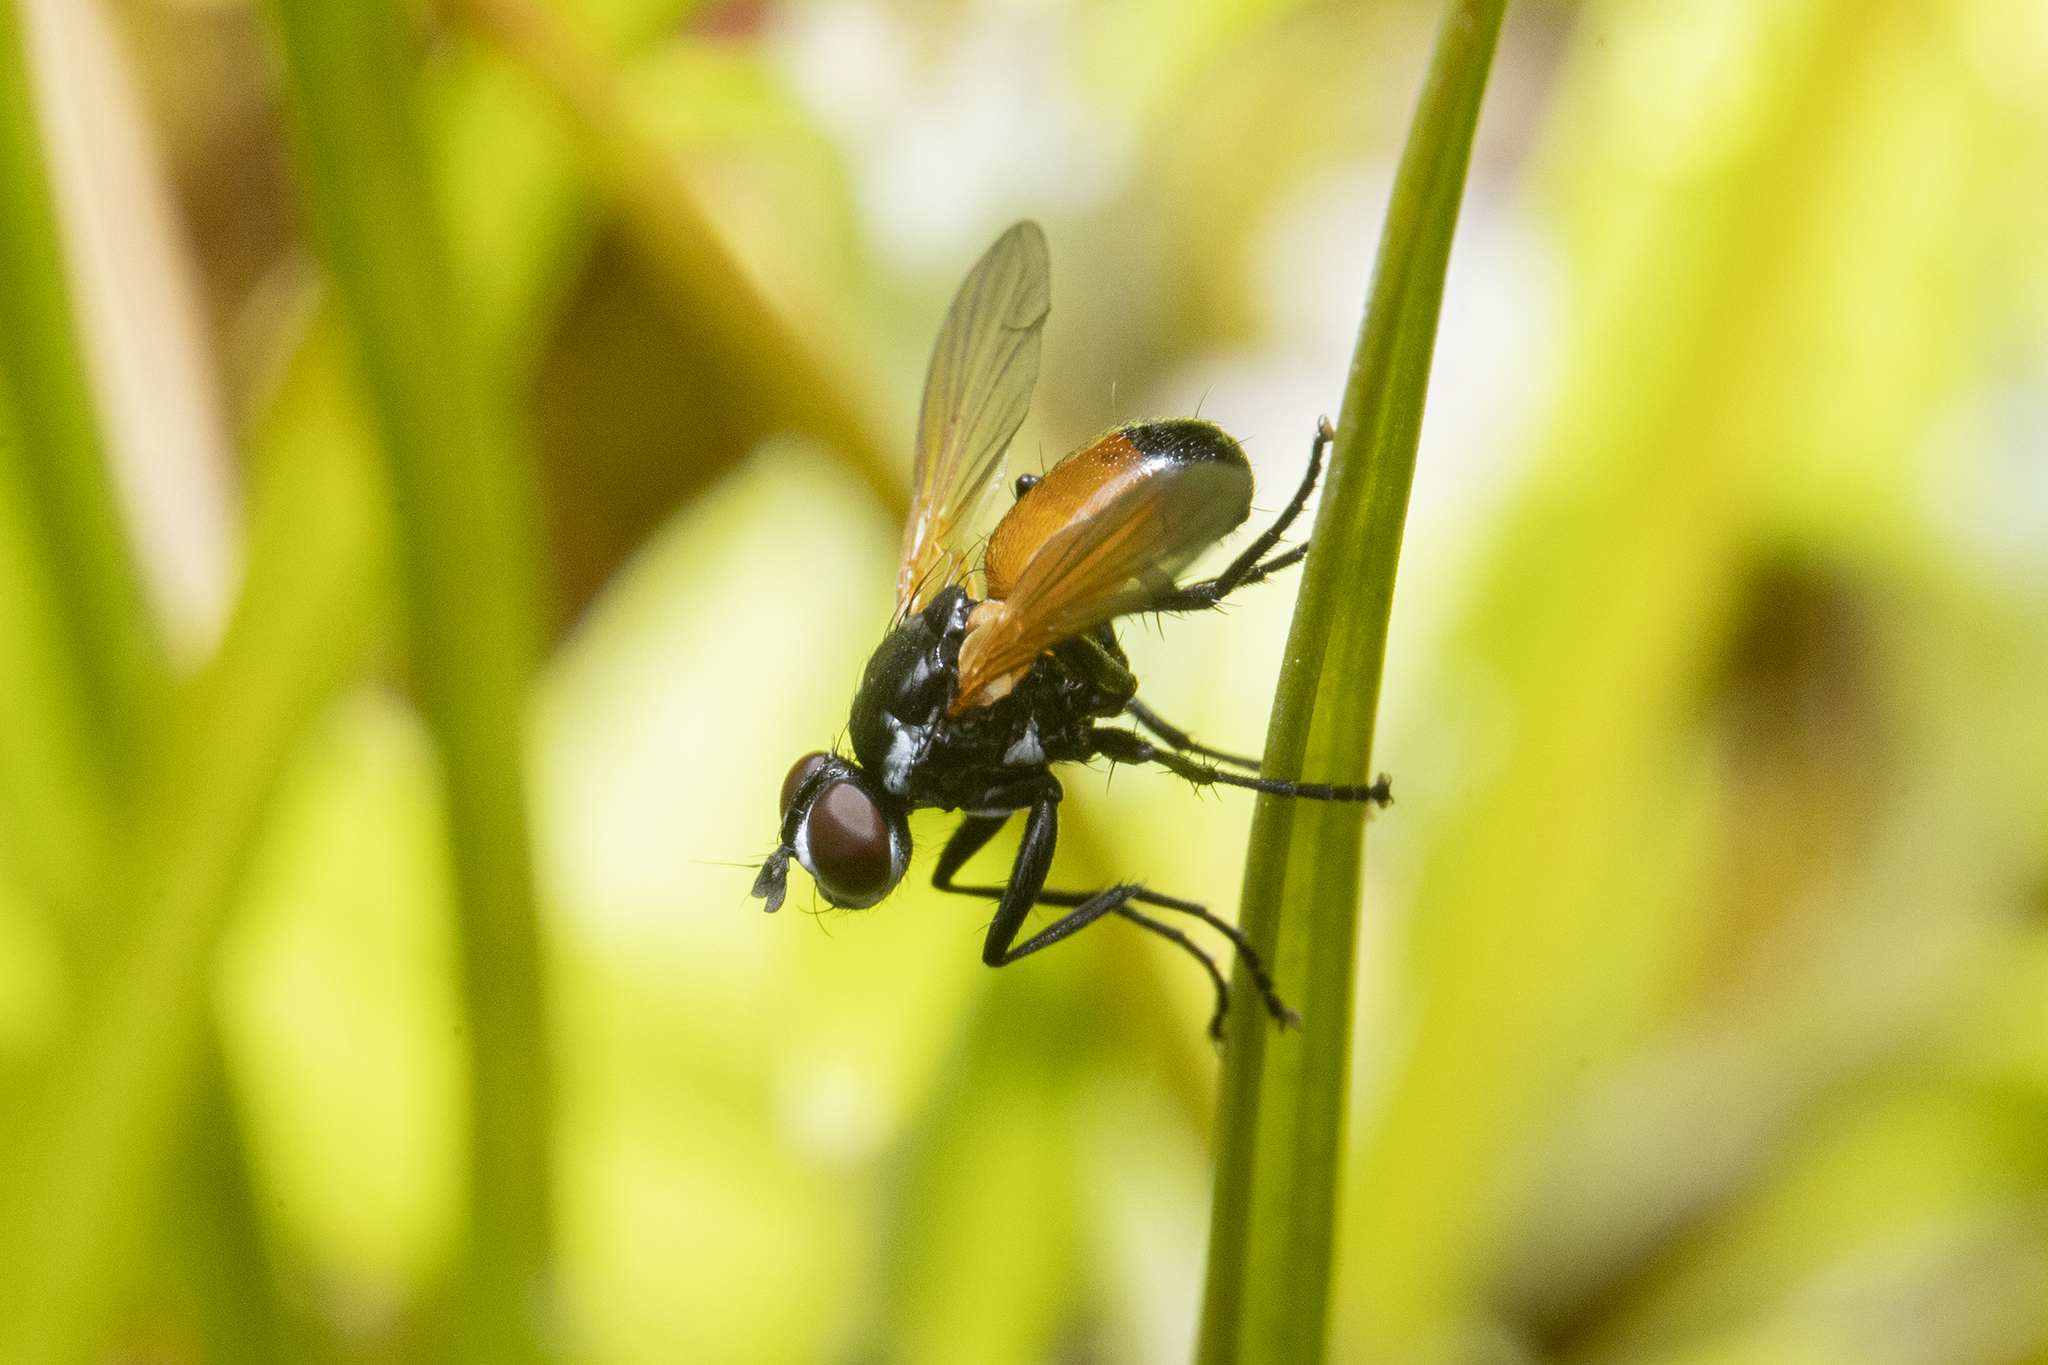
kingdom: Animalia
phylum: Arthropoda
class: Insecta
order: Diptera
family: Tachinidae
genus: Huttonobesseria
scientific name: Huttonobesseria verecunda
